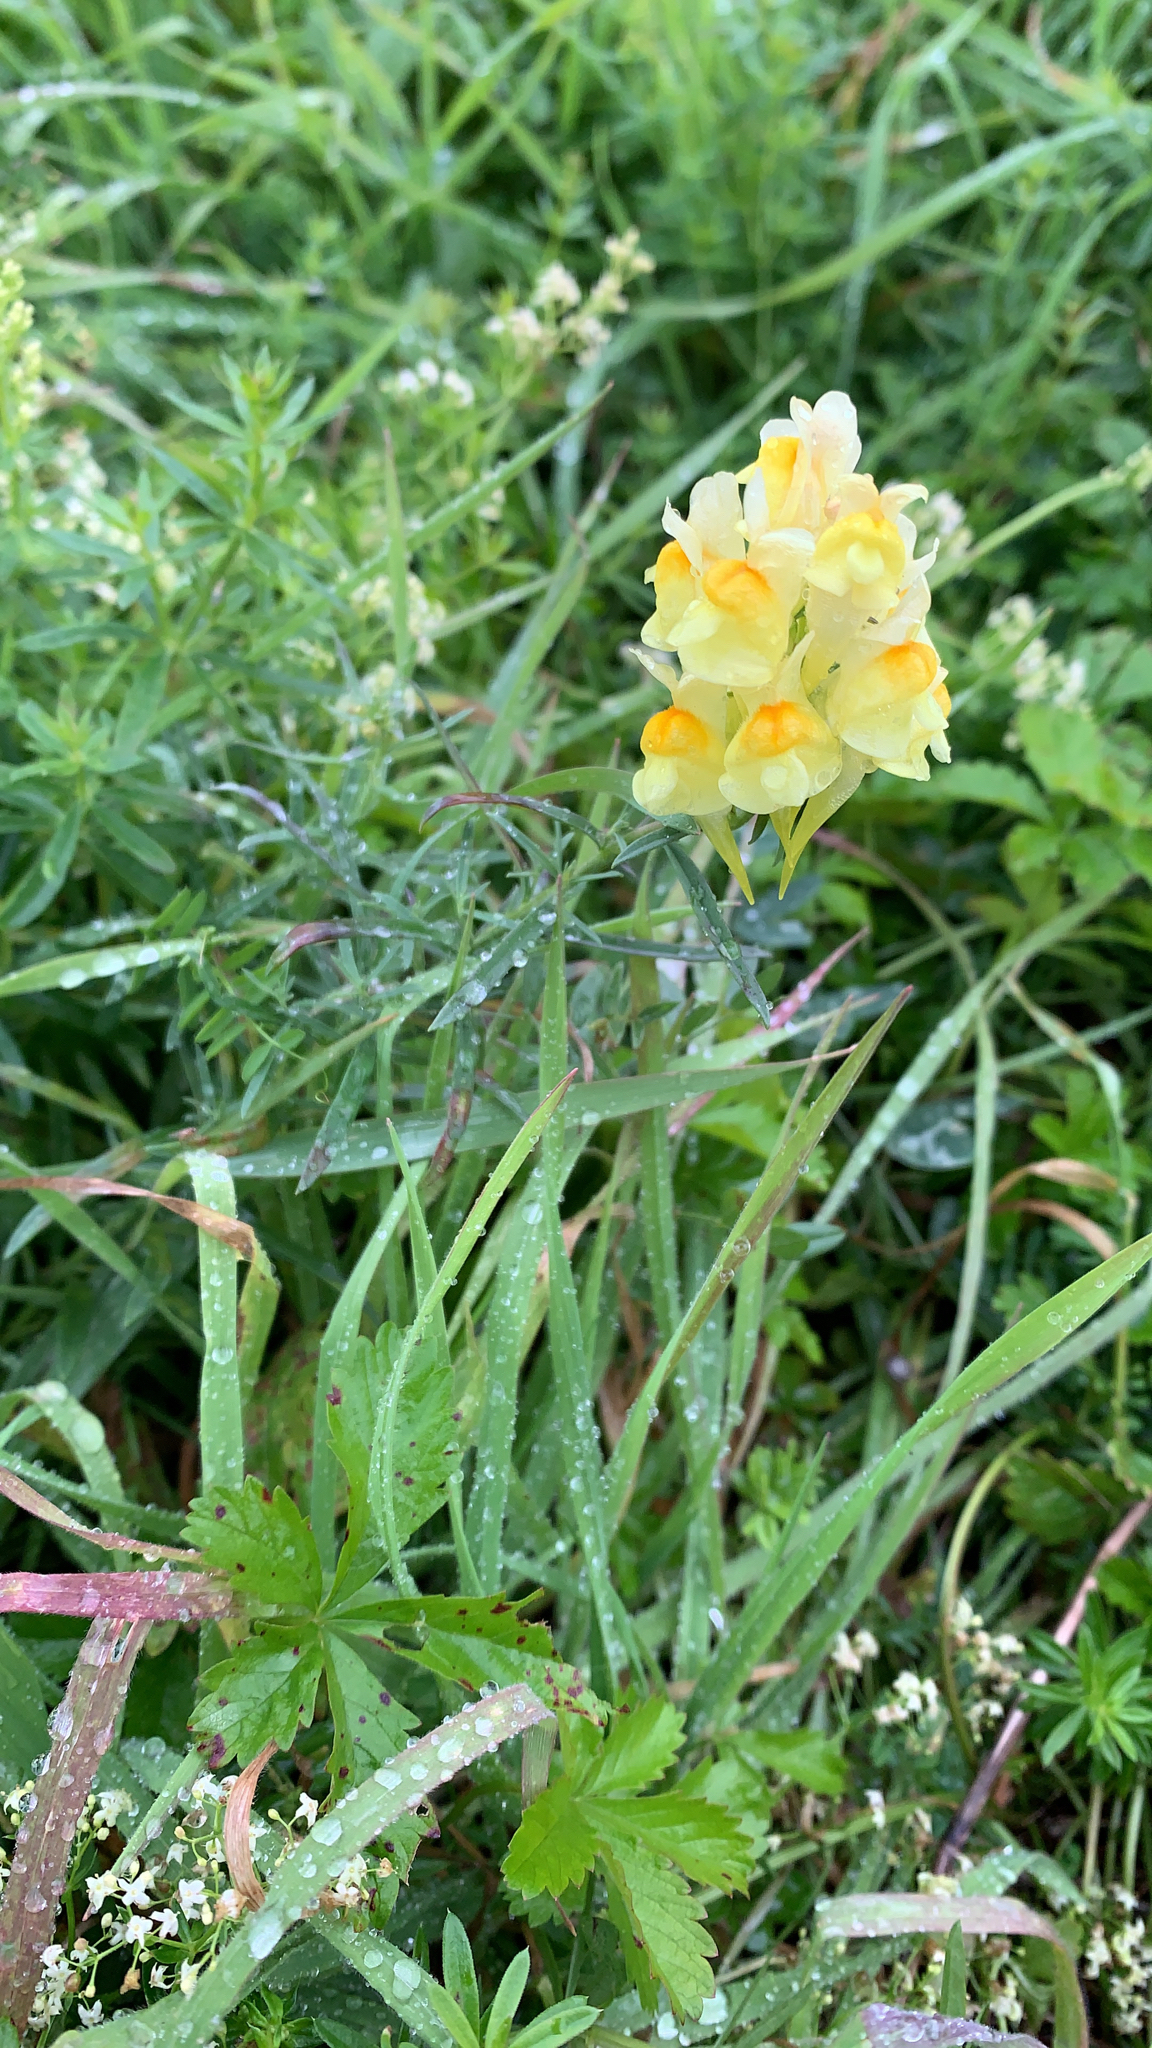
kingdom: Plantae
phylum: Tracheophyta
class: Magnoliopsida
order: Lamiales
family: Plantaginaceae
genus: Linaria
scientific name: Linaria vulgaris
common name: Butter and eggs
